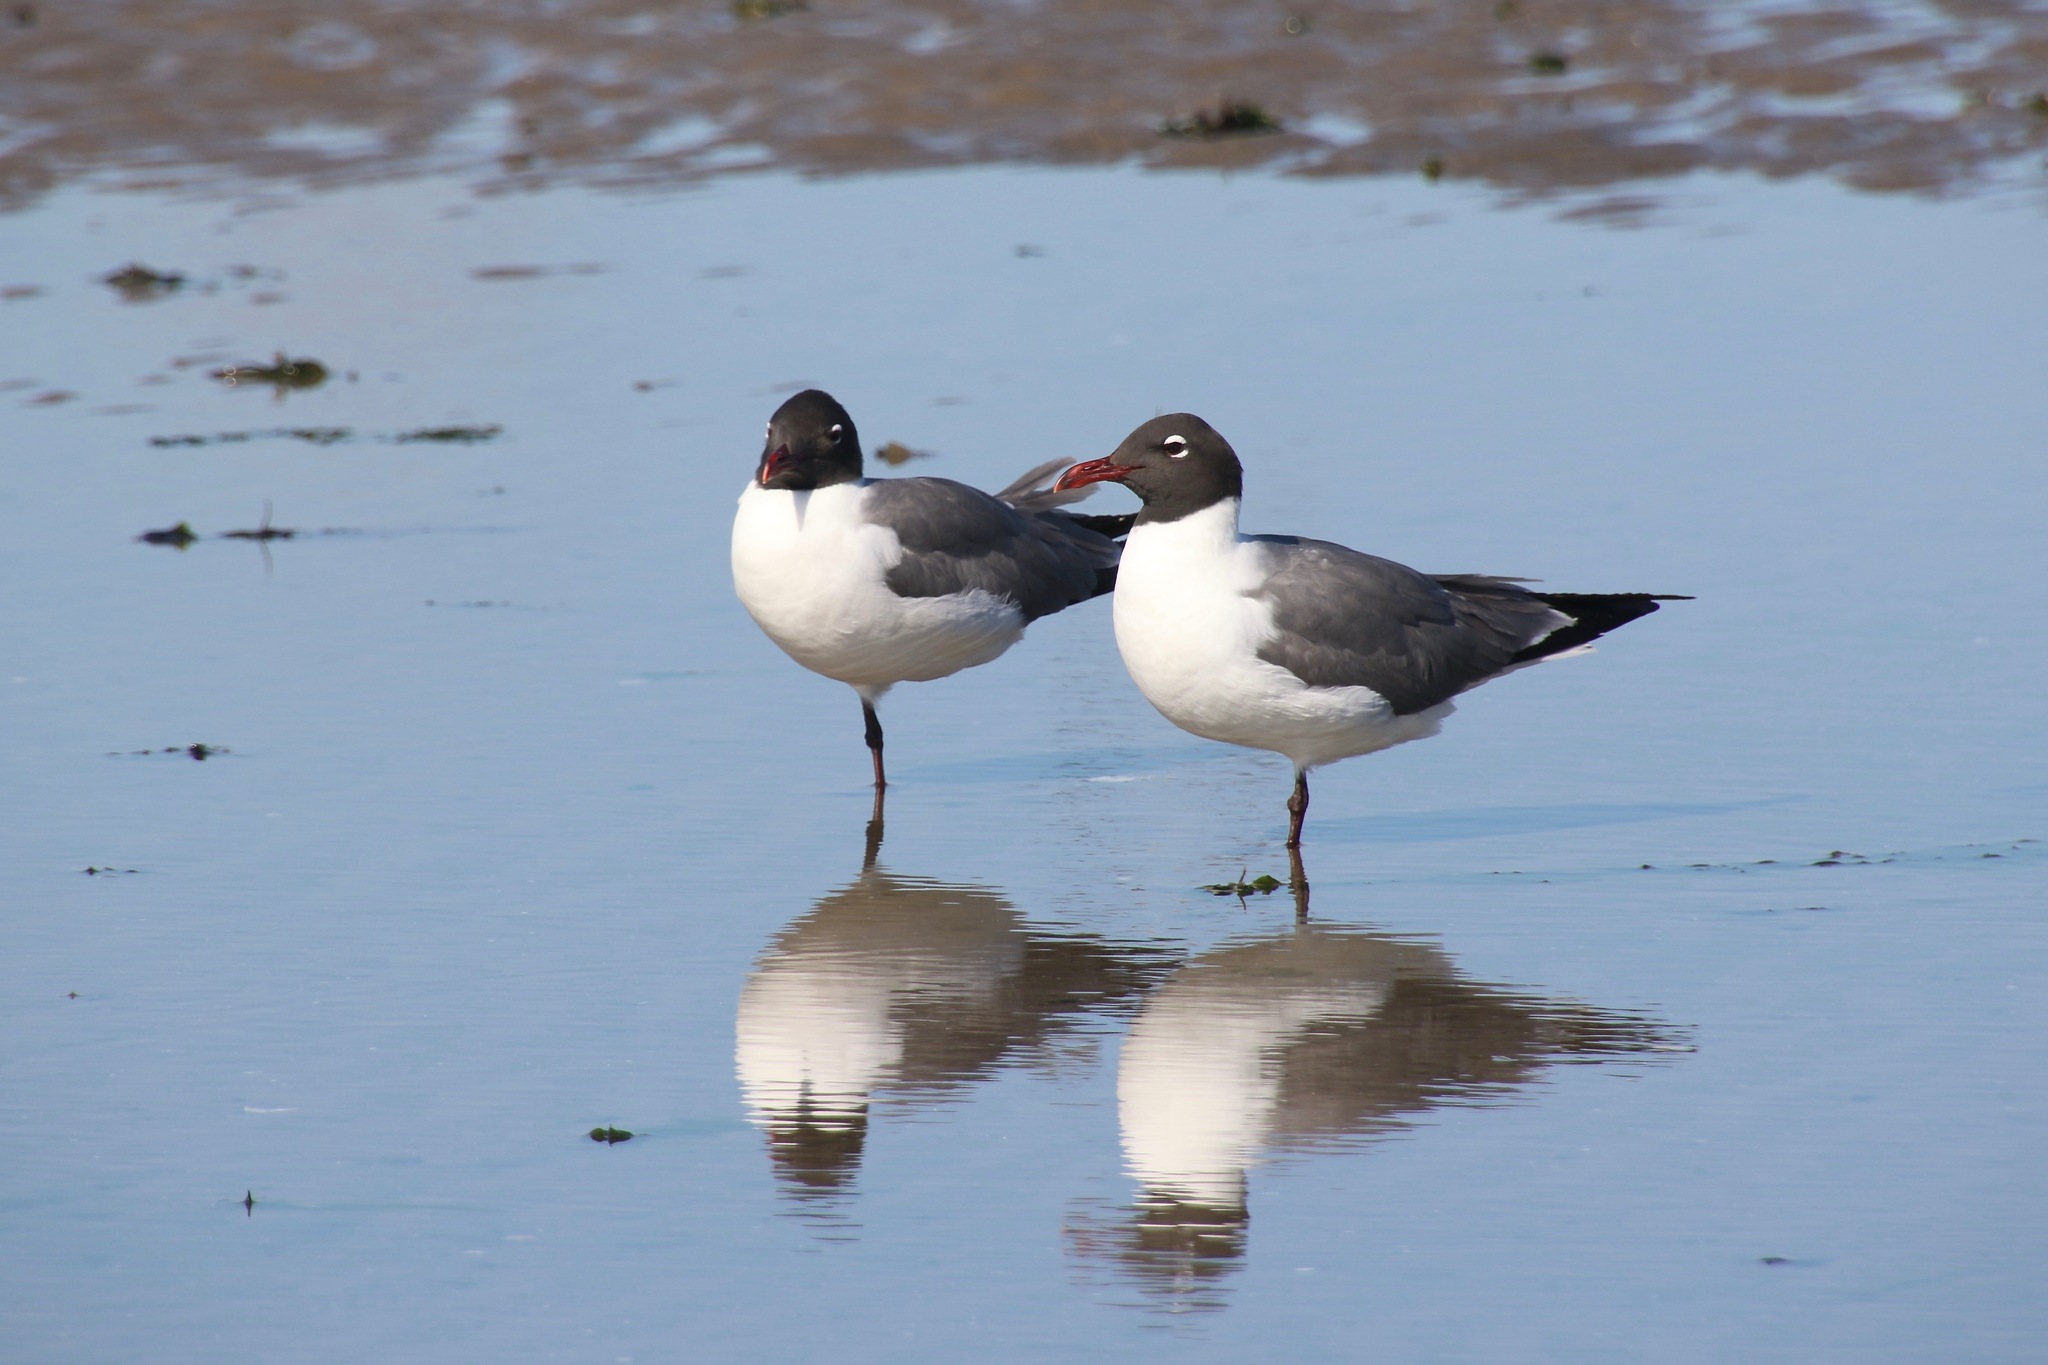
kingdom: Animalia
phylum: Chordata
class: Aves
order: Charadriiformes
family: Laridae
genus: Leucophaeus
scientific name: Leucophaeus atricilla
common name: Laughing gull
